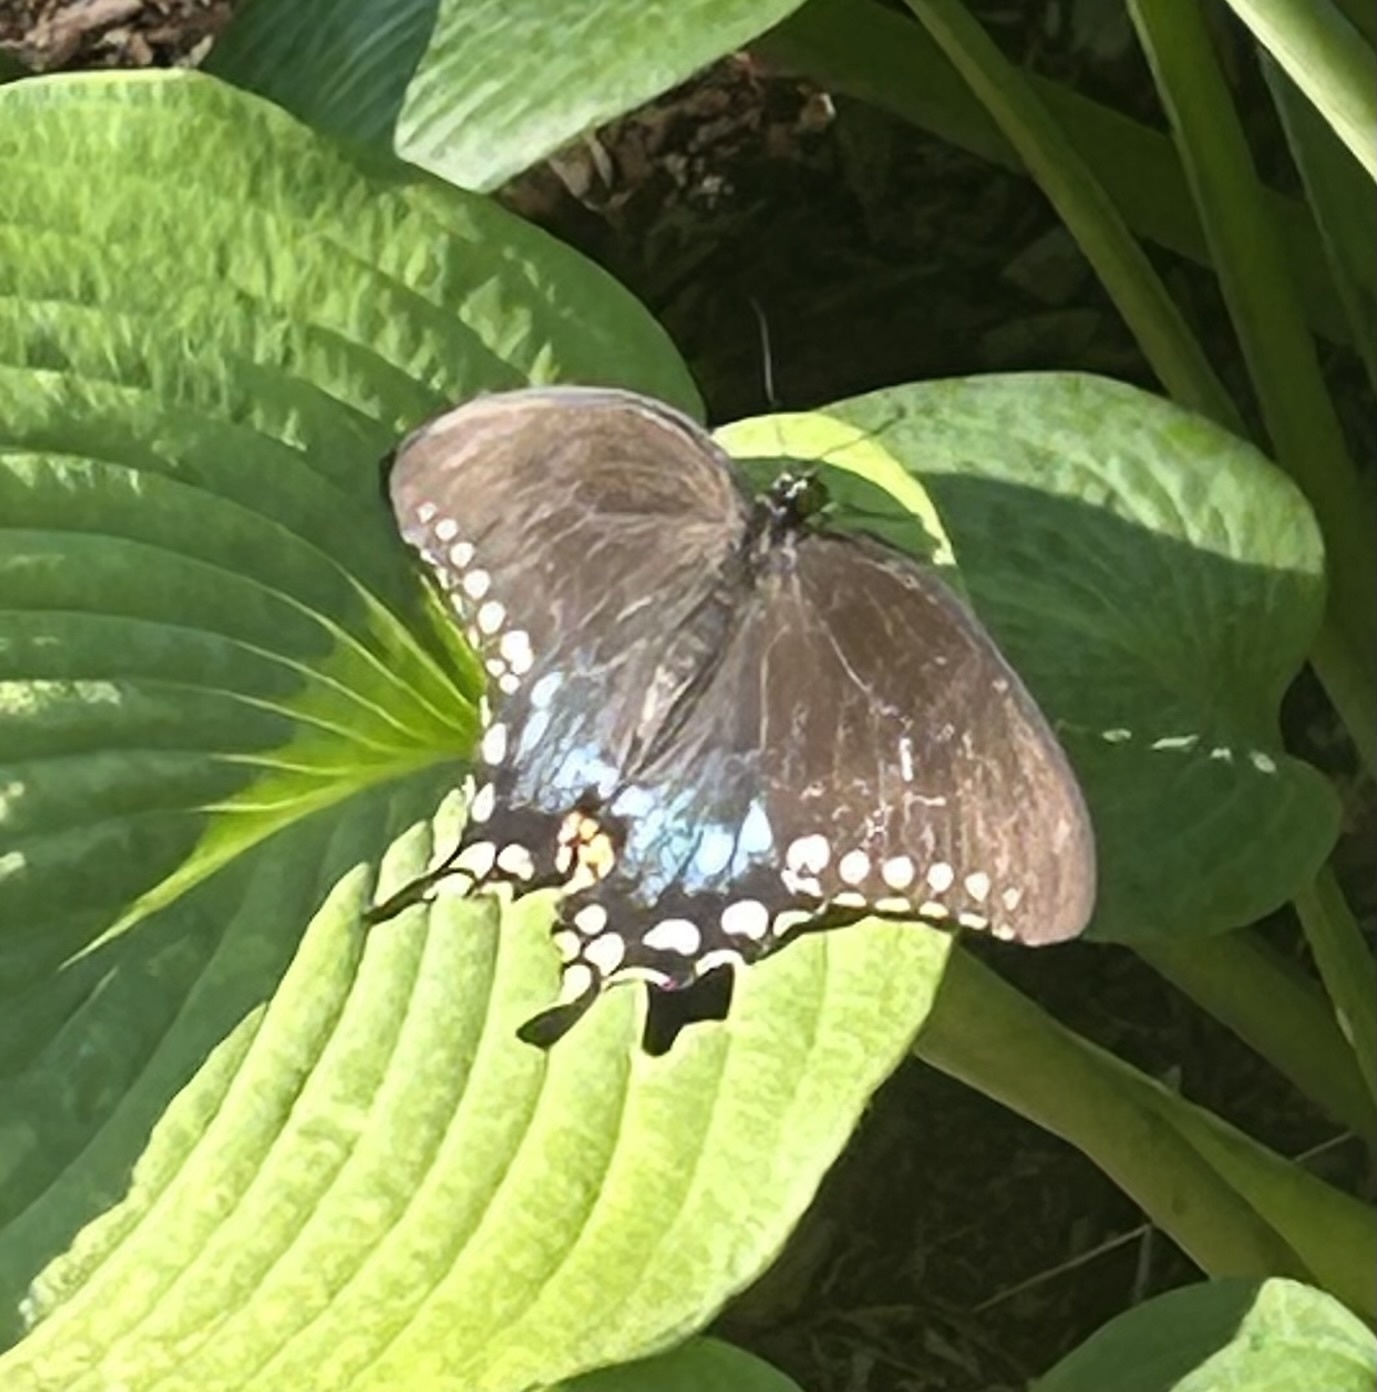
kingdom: Animalia
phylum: Arthropoda
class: Insecta
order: Lepidoptera
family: Papilionidae
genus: Papilio
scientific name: Papilio troilus
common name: Spicebush swallowtail
